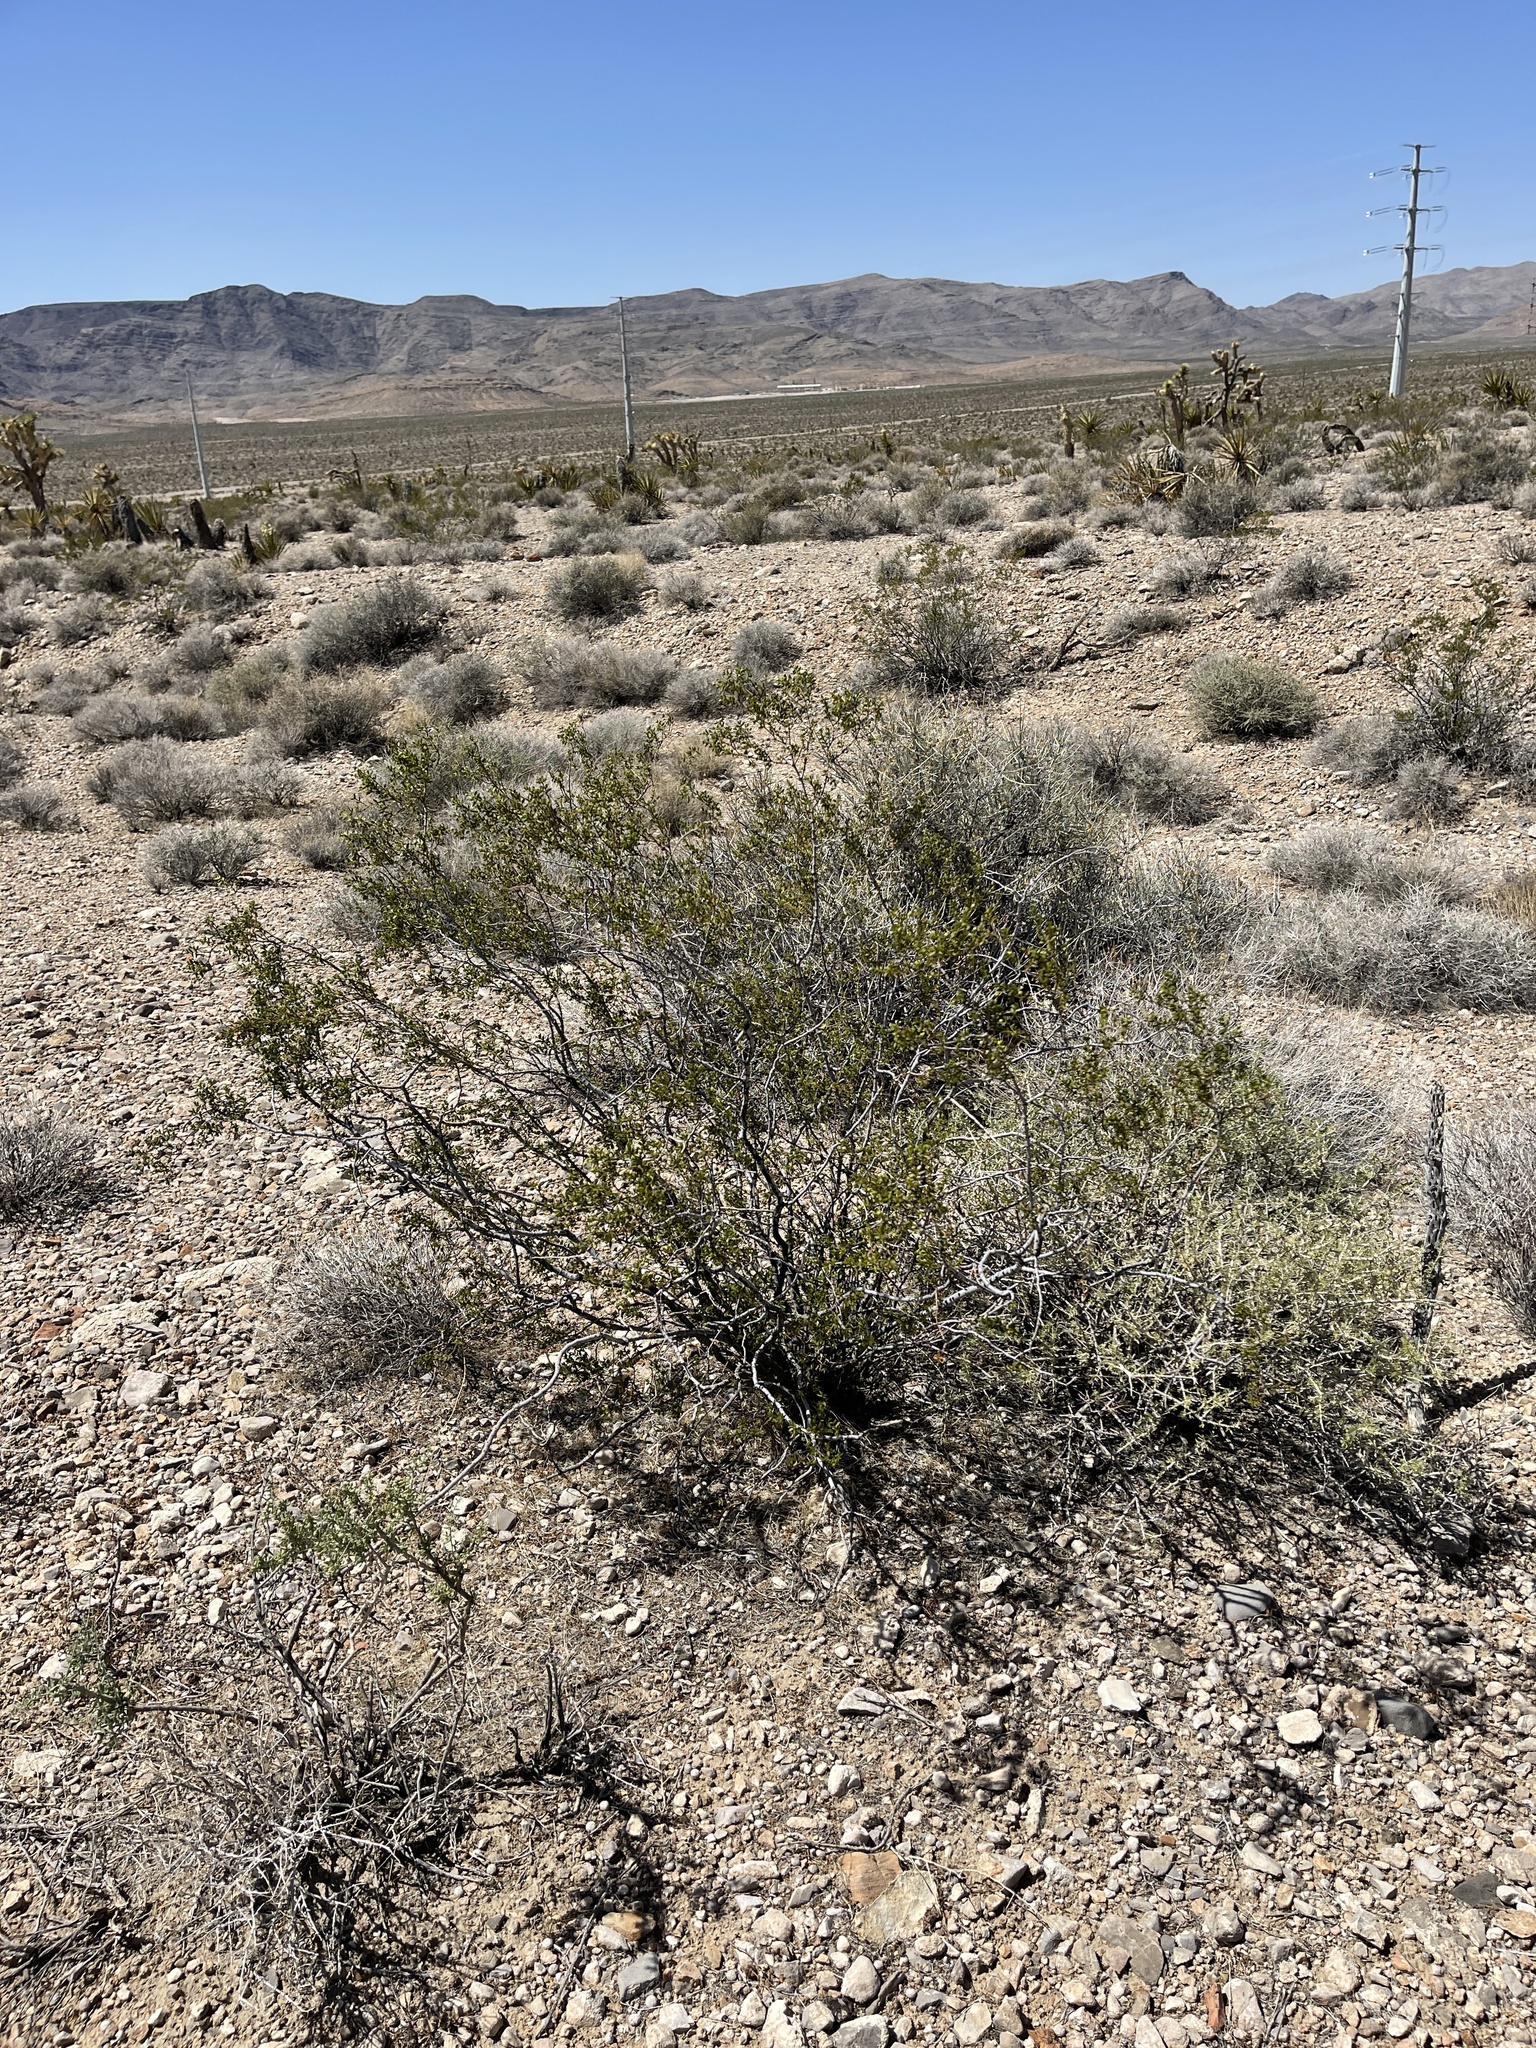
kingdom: Plantae
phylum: Tracheophyta
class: Magnoliopsida
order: Zygophyllales
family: Zygophyllaceae
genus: Larrea
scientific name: Larrea tridentata
